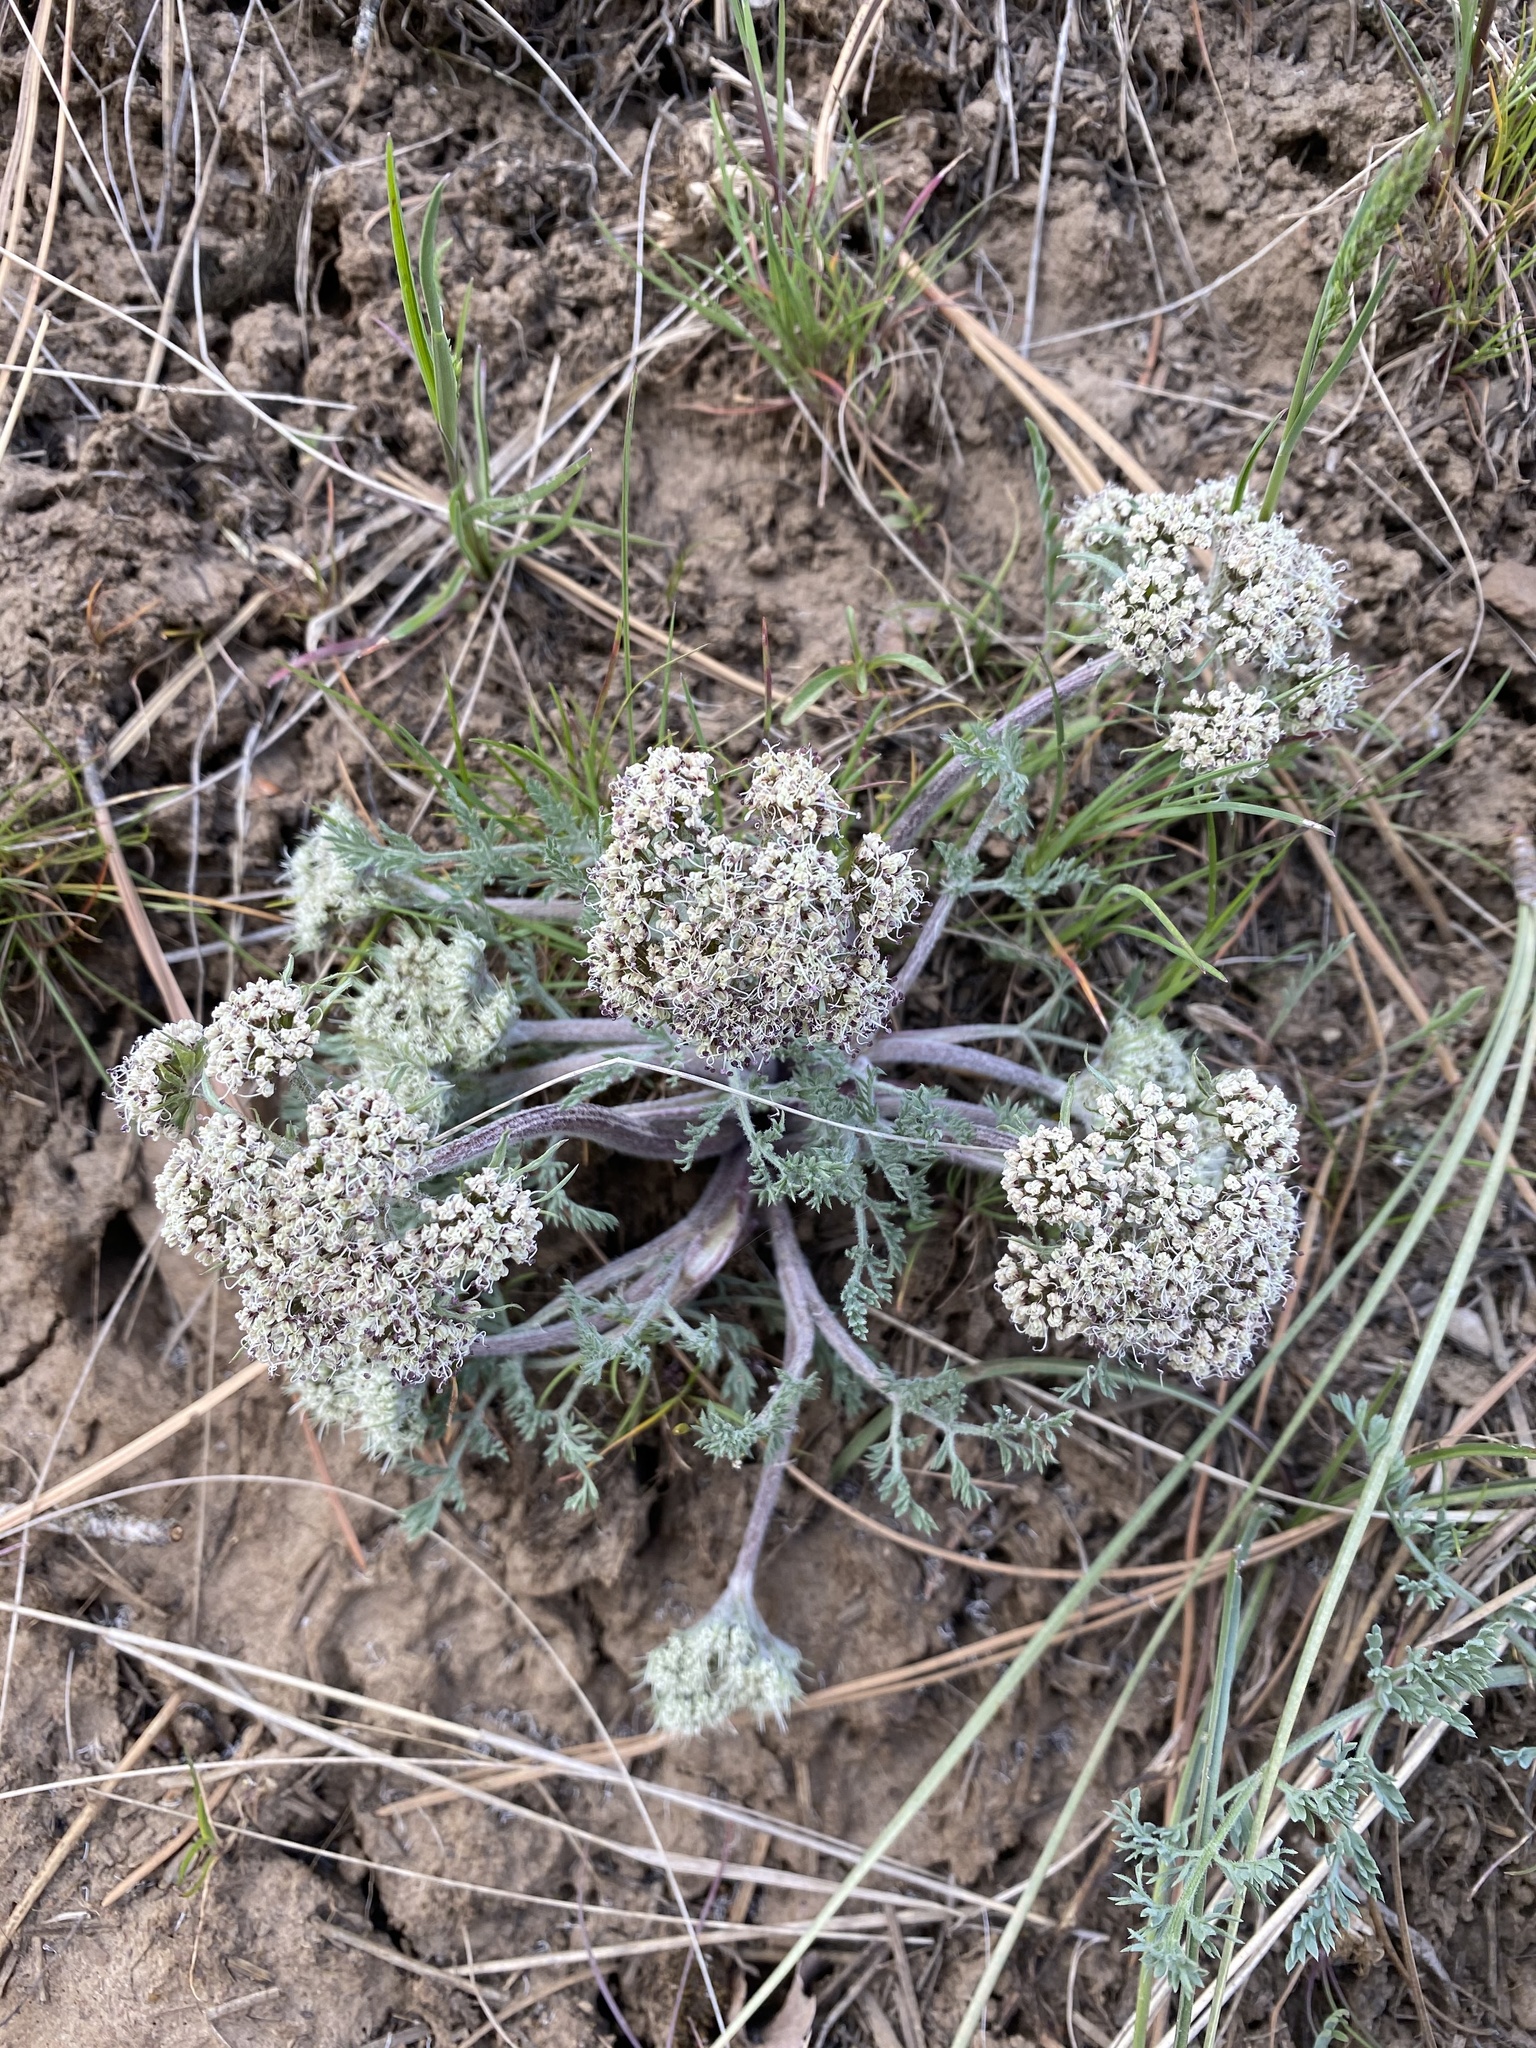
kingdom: Plantae
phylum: Tracheophyta
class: Magnoliopsida
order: Apiales
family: Apiaceae
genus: Lomatium
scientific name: Lomatium macrocarpum
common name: Big-seed biscuitroot
